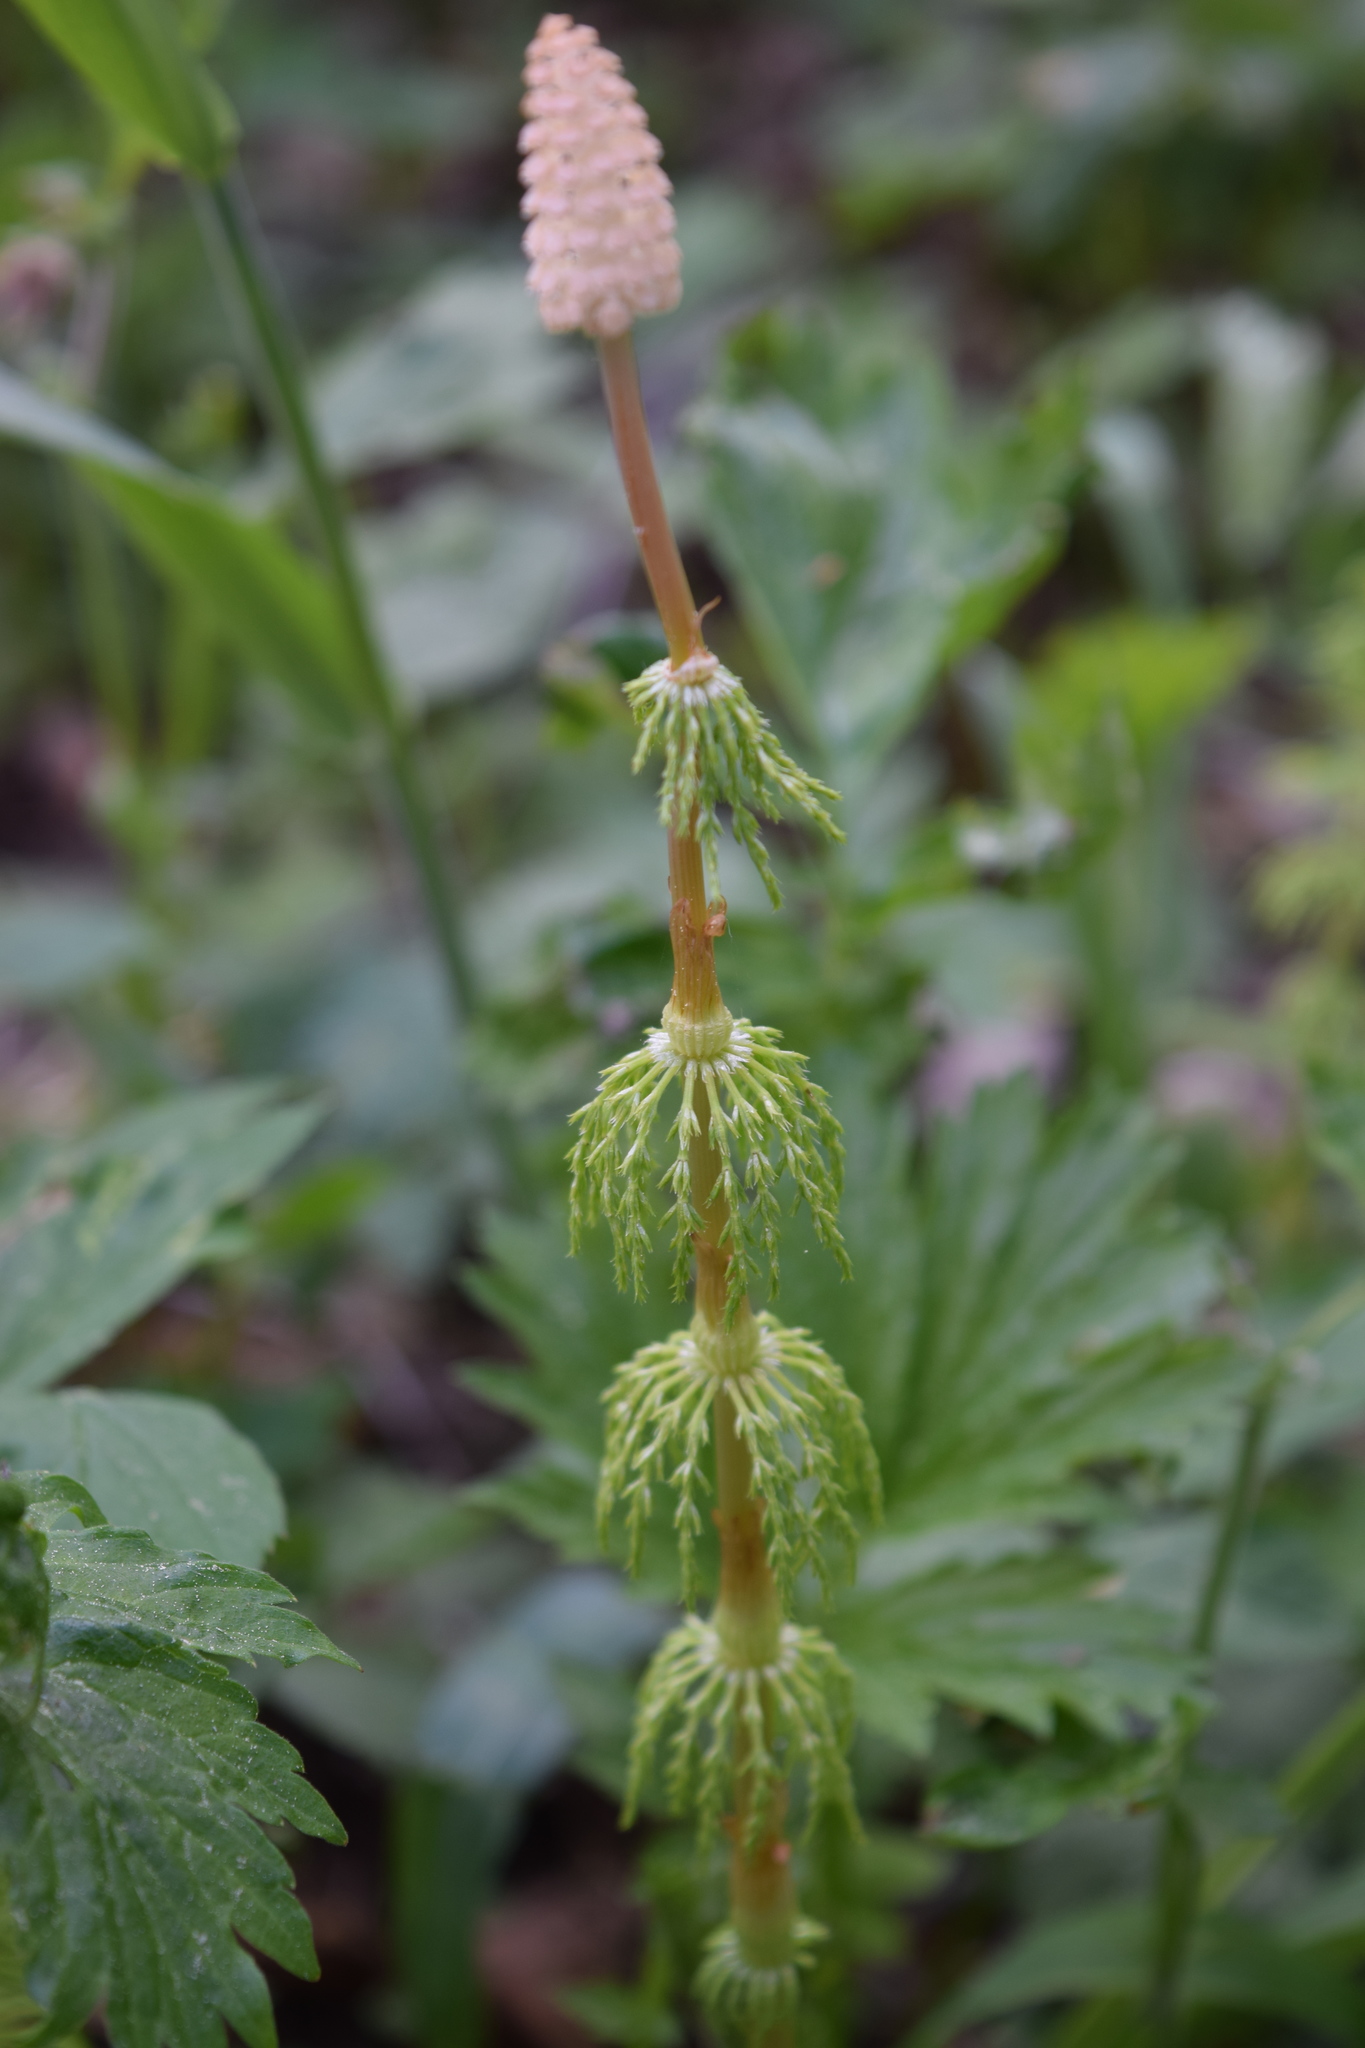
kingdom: Plantae
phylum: Tracheophyta
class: Polypodiopsida
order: Equisetales
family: Equisetaceae
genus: Equisetum
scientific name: Equisetum sylvaticum
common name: Wood horsetail
